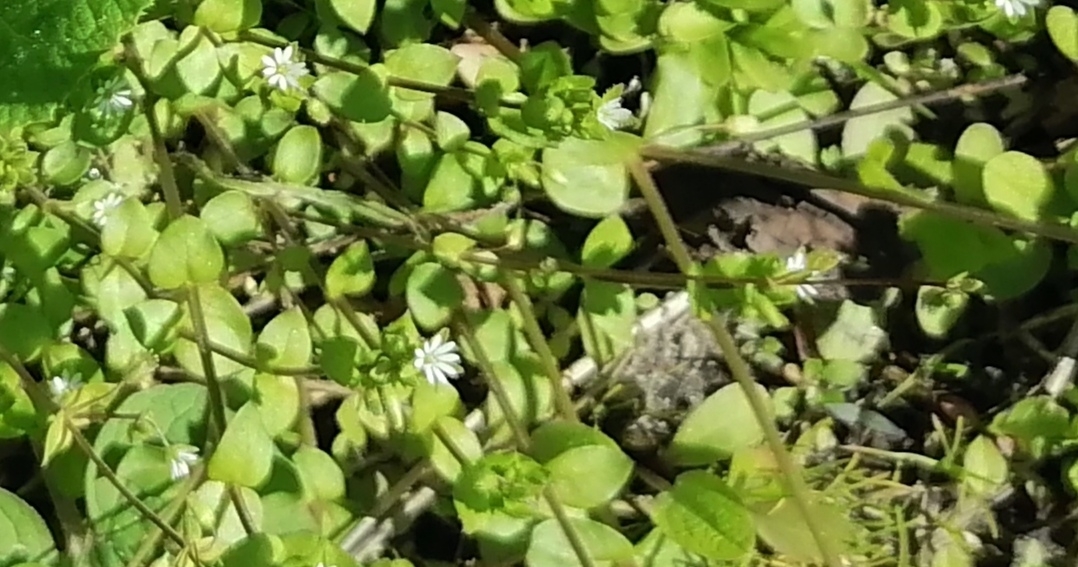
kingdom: Plantae
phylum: Tracheophyta
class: Magnoliopsida
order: Caryophyllales
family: Caryophyllaceae
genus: Stellaria
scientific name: Stellaria media
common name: Common chickweed
